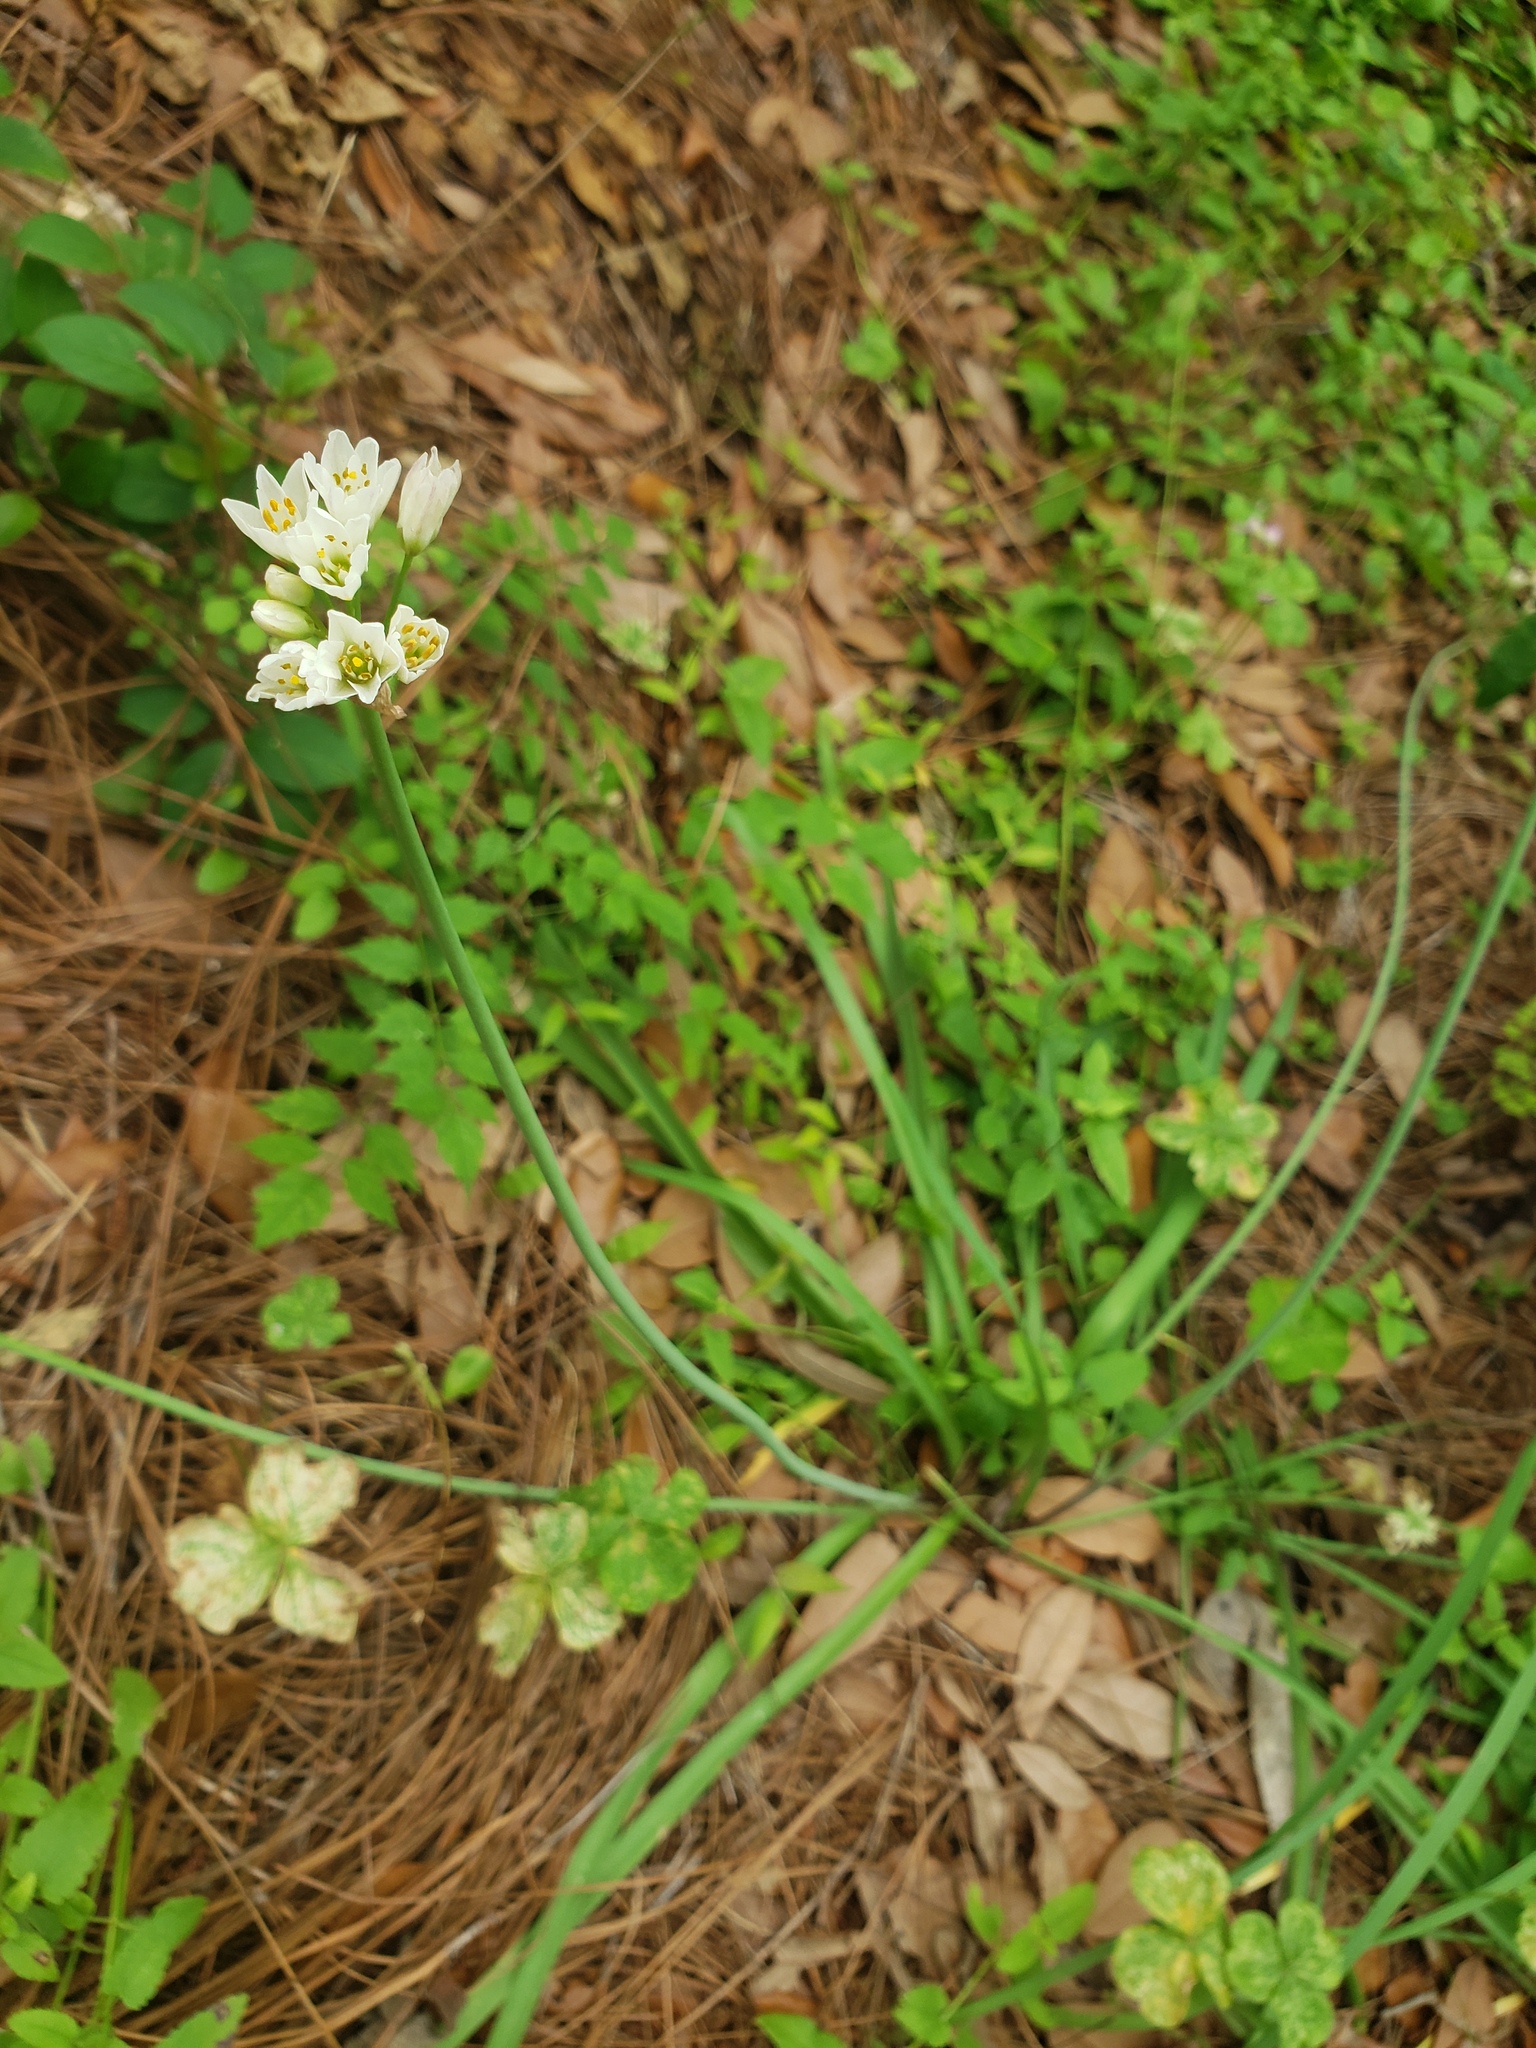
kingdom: Plantae
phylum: Tracheophyta
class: Liliopsida
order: Asparagales
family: Amaryllidaceae
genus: Nothoscordum
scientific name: Nothoscordum gracile
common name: Slender false garlic
